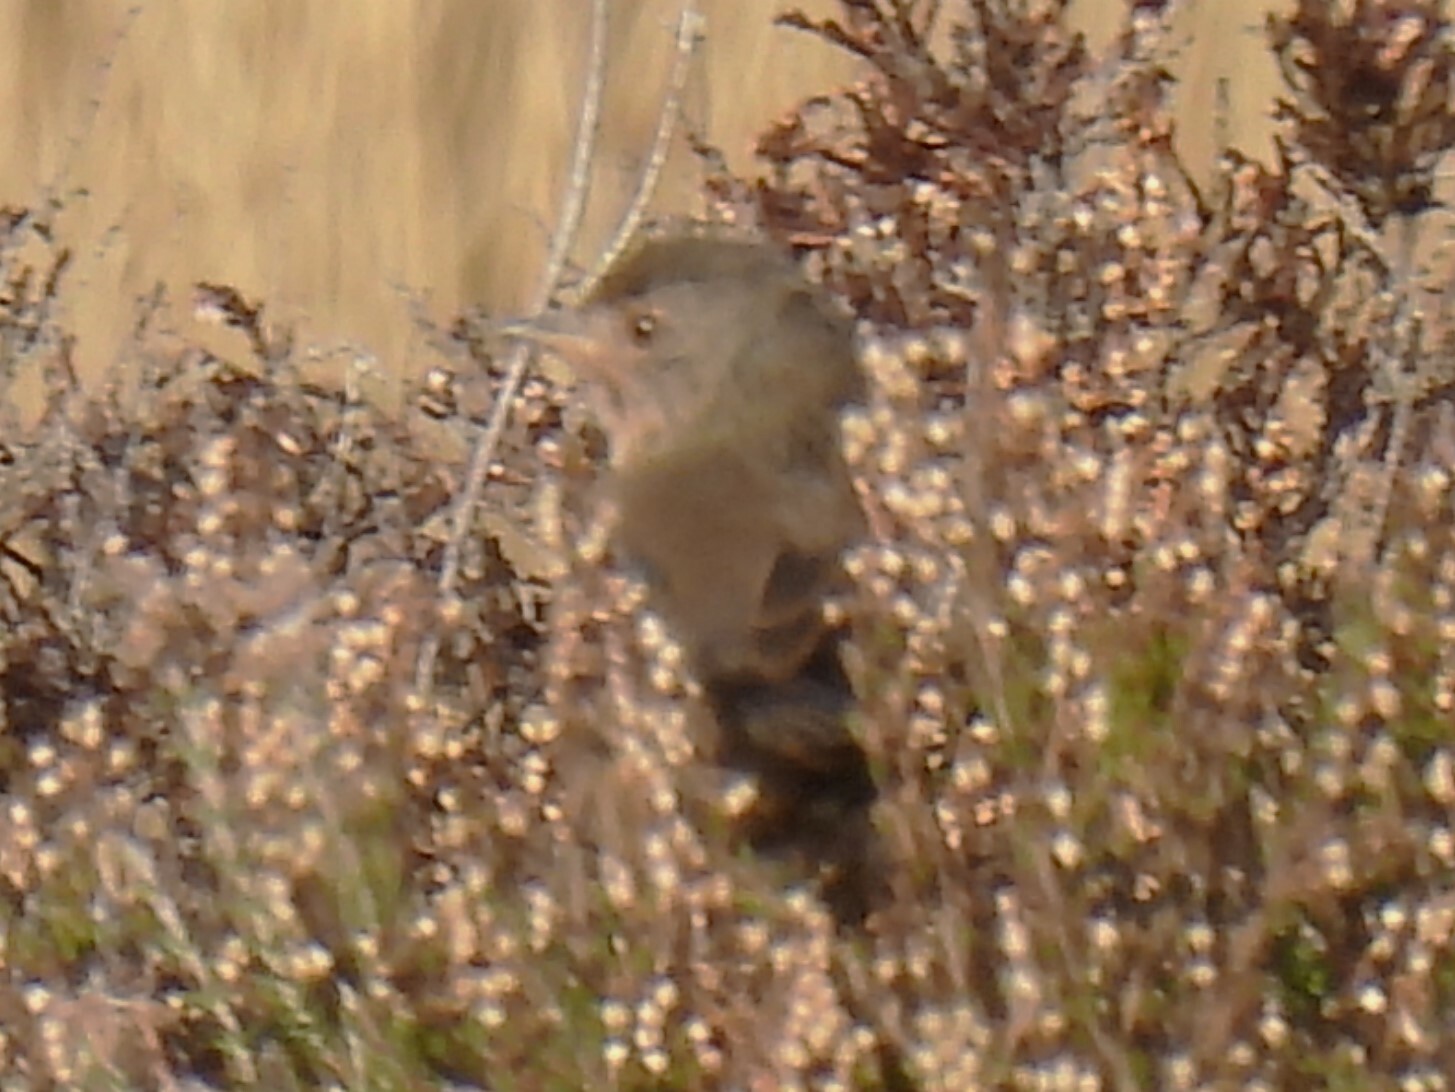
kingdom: Animalia
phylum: Chordata
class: Aves
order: Passeriformes
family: Sylviidae
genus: Sylvia
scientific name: Sylvia undata
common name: Dartford warbler
